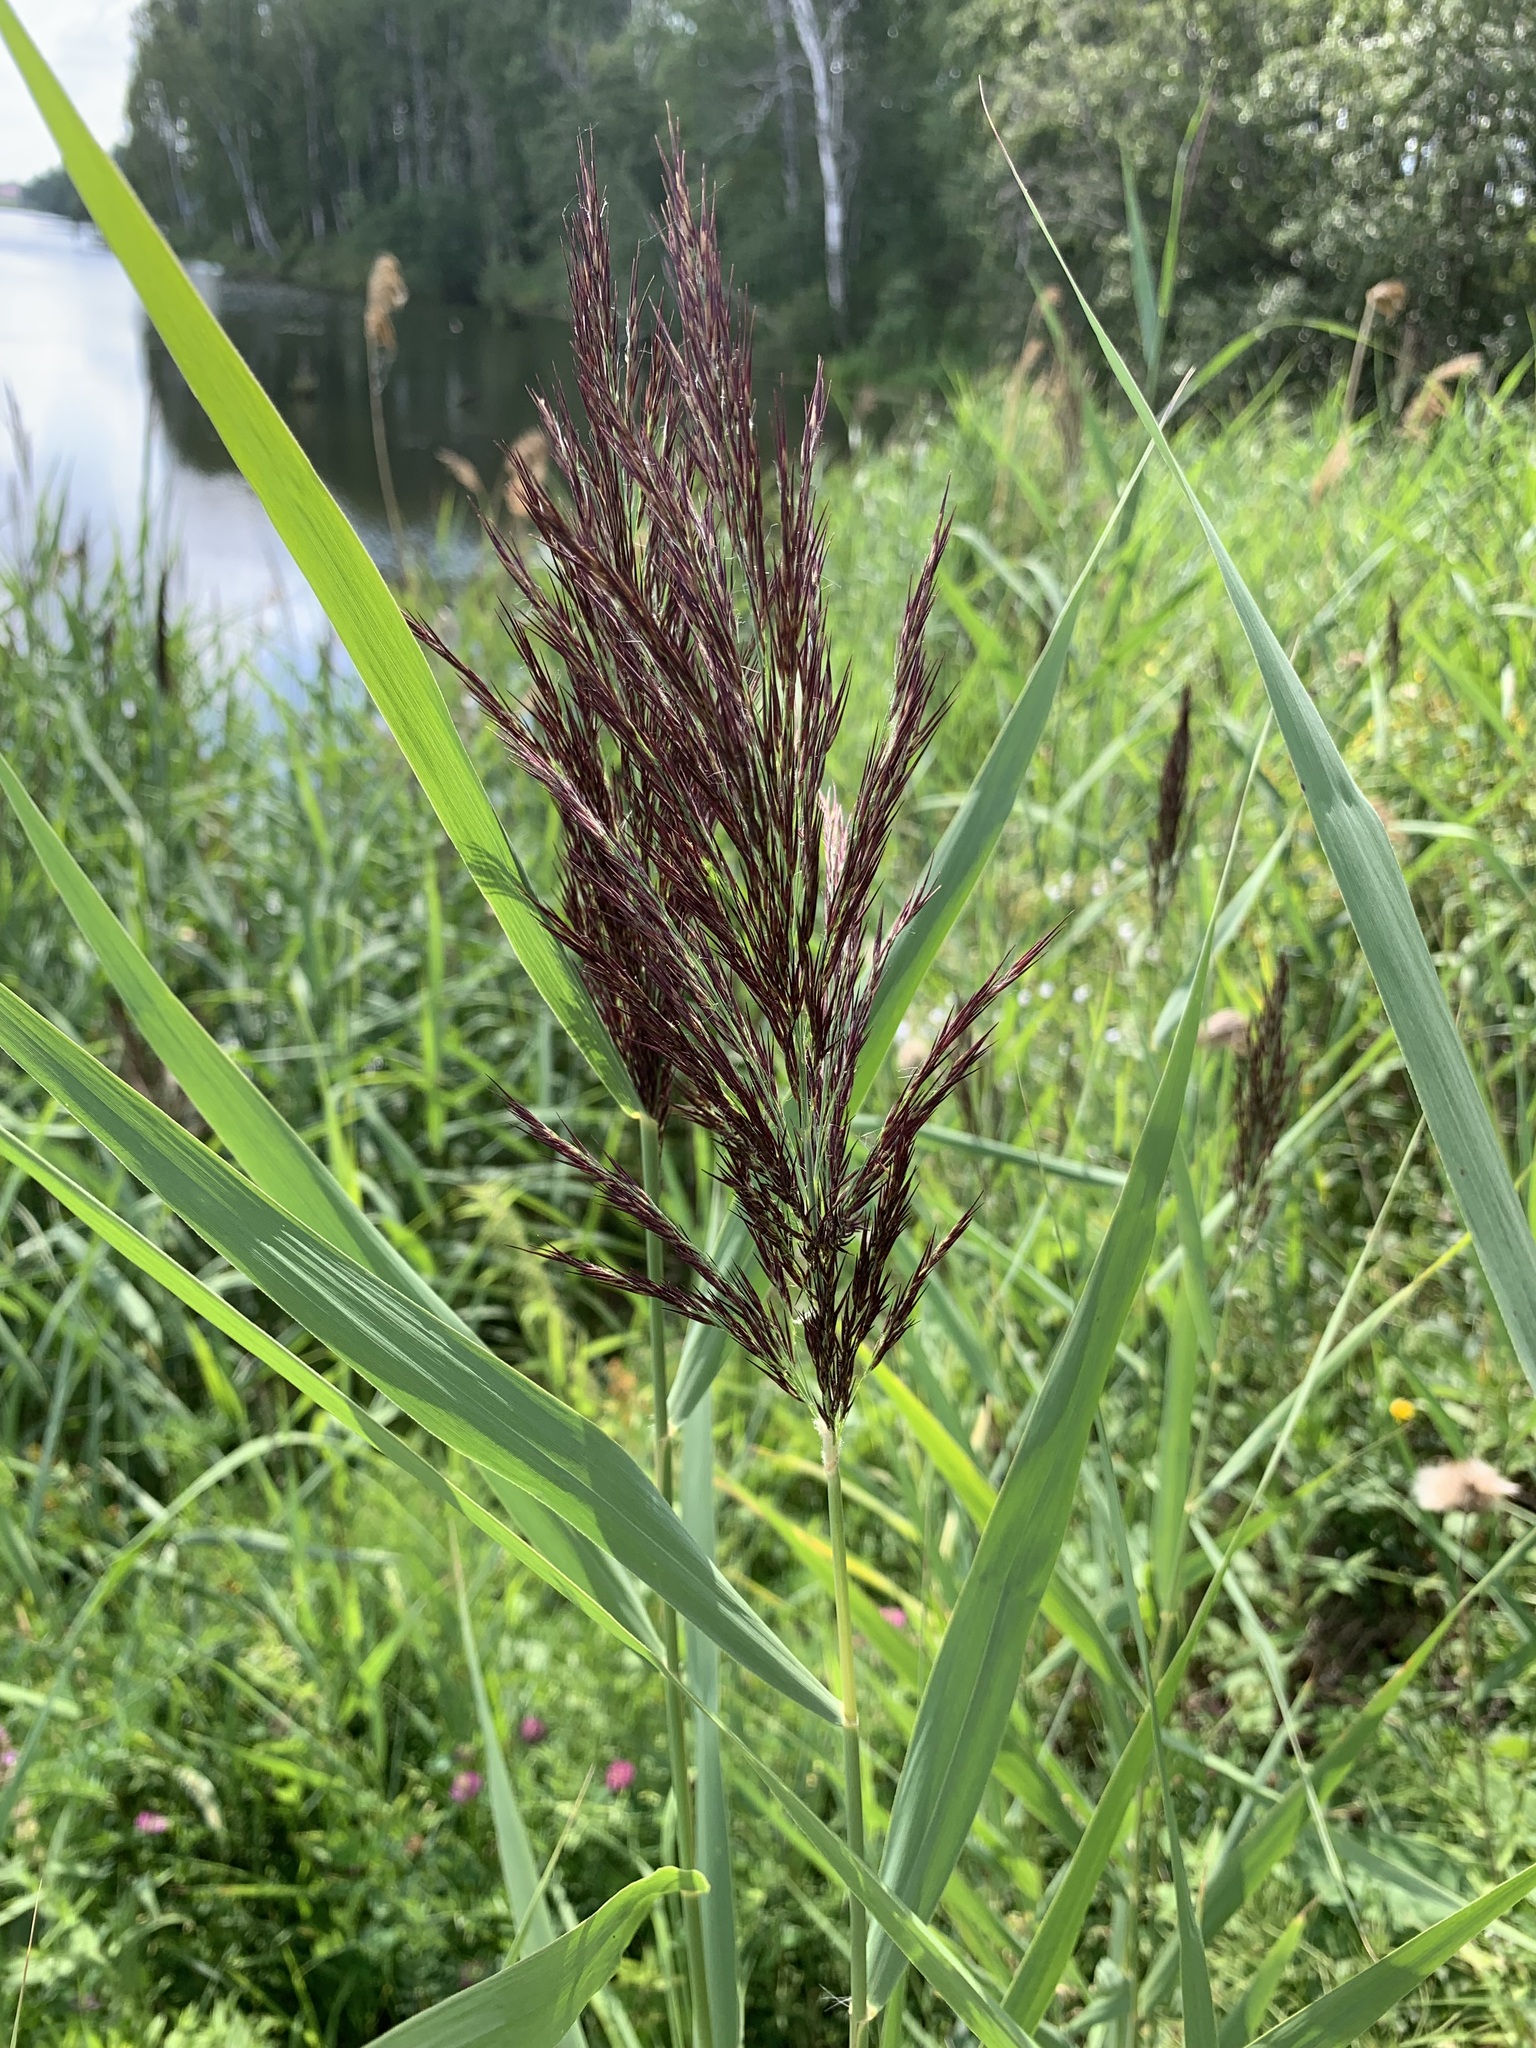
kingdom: Plantae
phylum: Tracheophyta
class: Liliopsida
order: Poales
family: Poaceae
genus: Phragmites
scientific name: Phragmites australis
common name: Common reed
